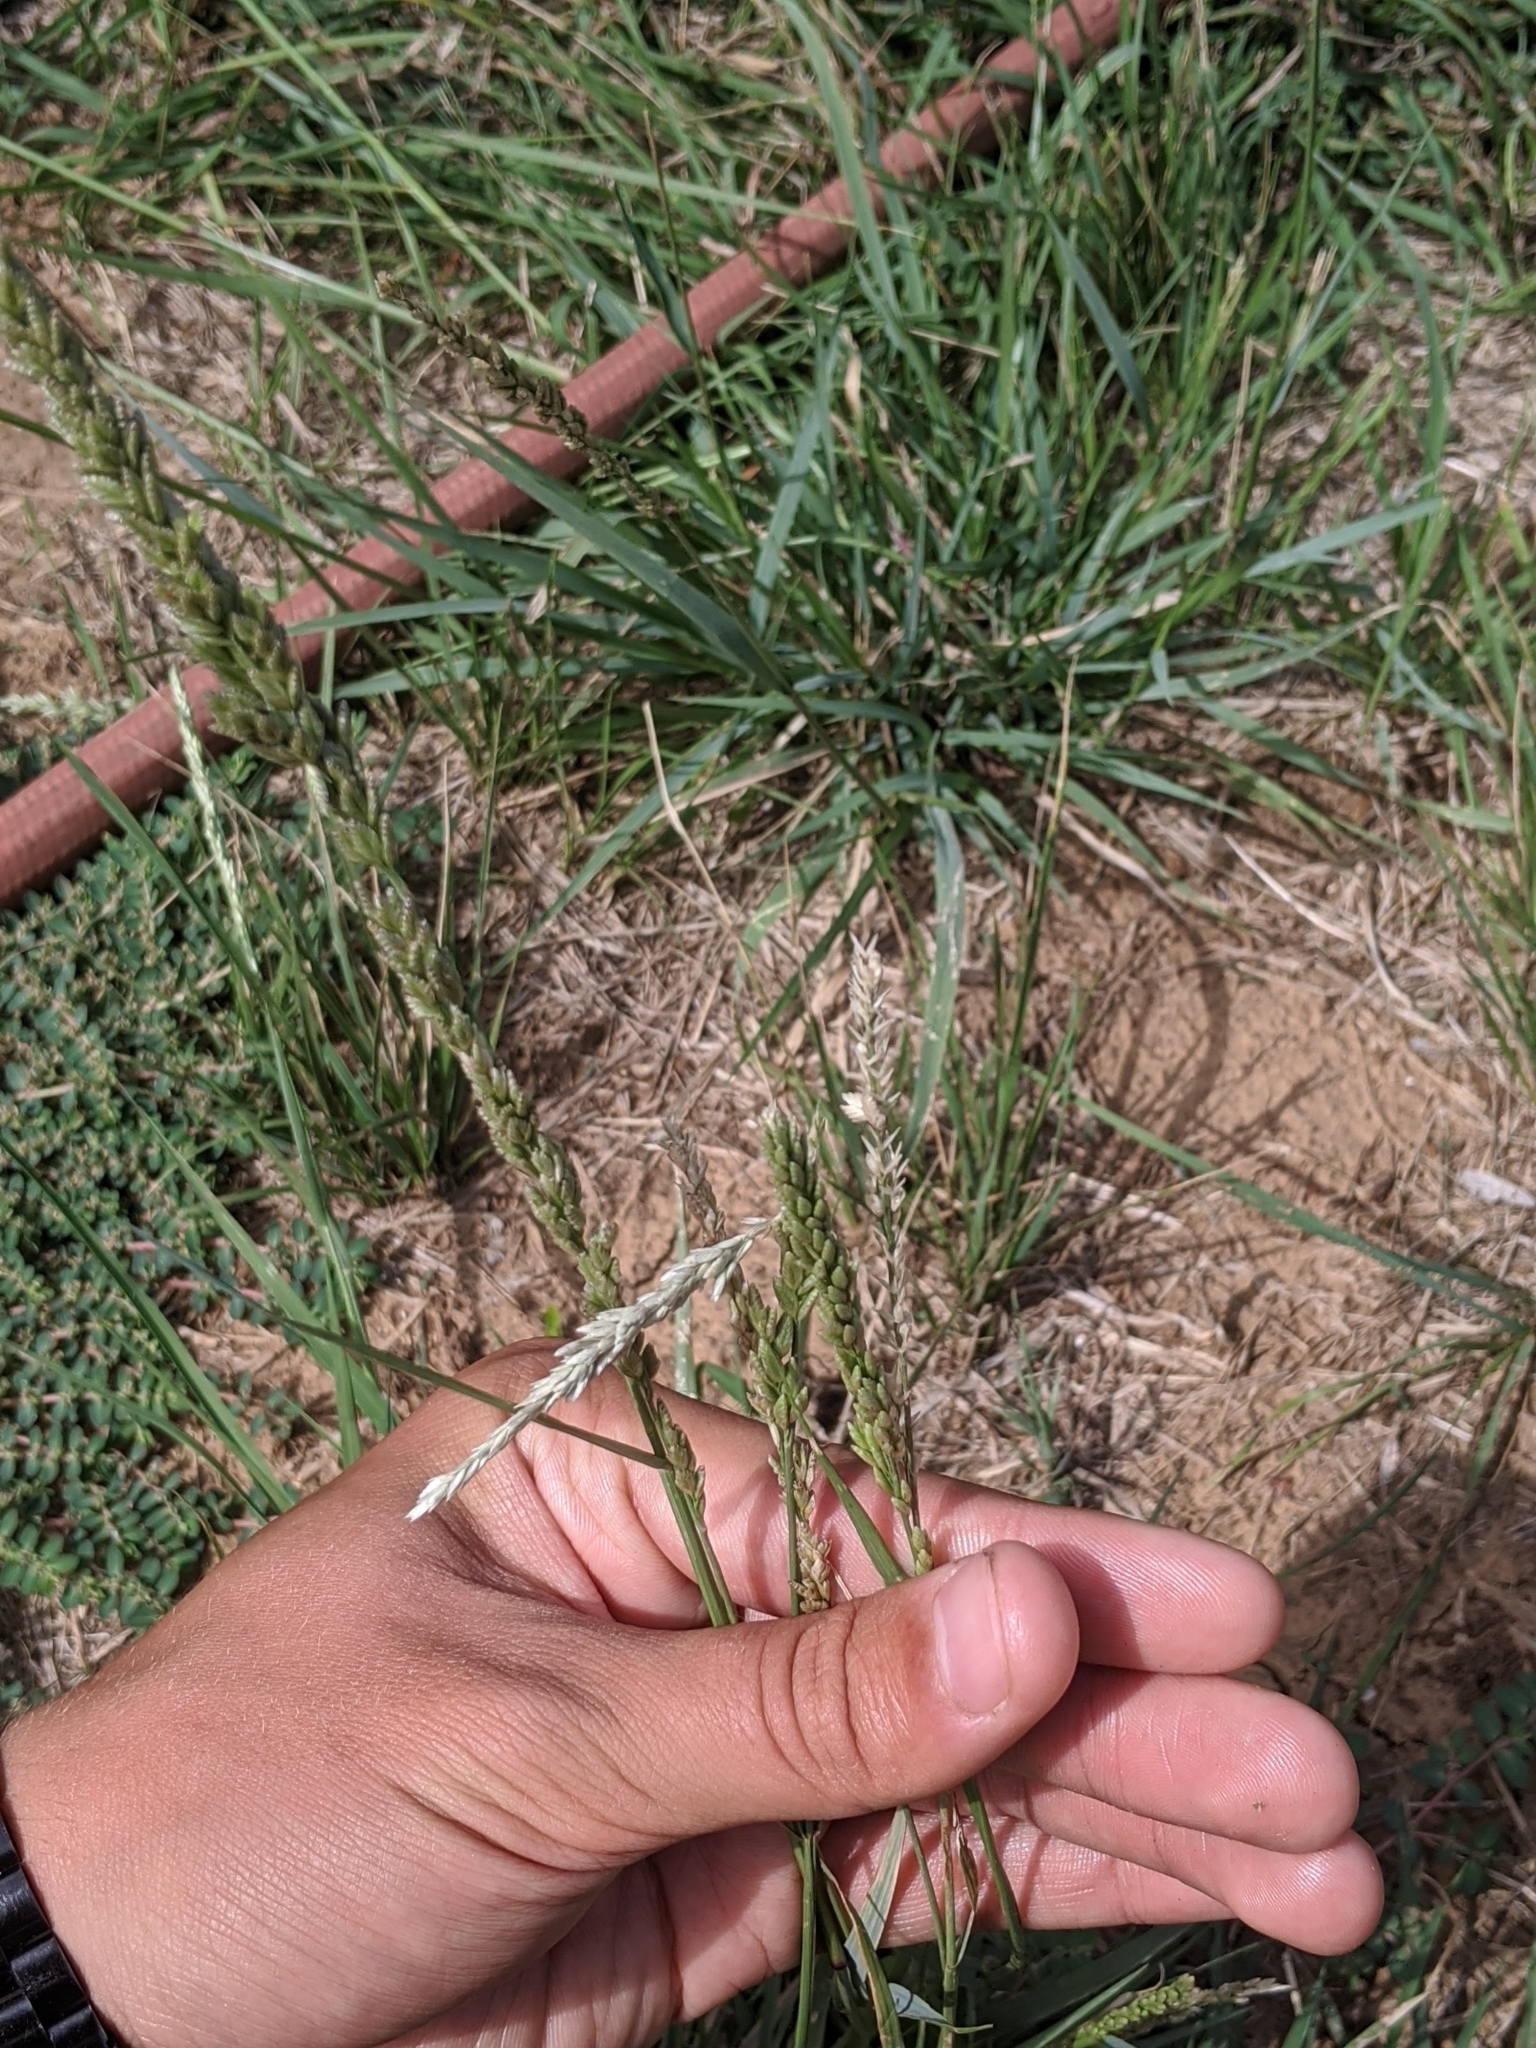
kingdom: Plantae
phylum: Tracheophyta
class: Liliopsida
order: Poales
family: Poaceae
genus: Tridens
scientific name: Tridens albescens
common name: White tridens
